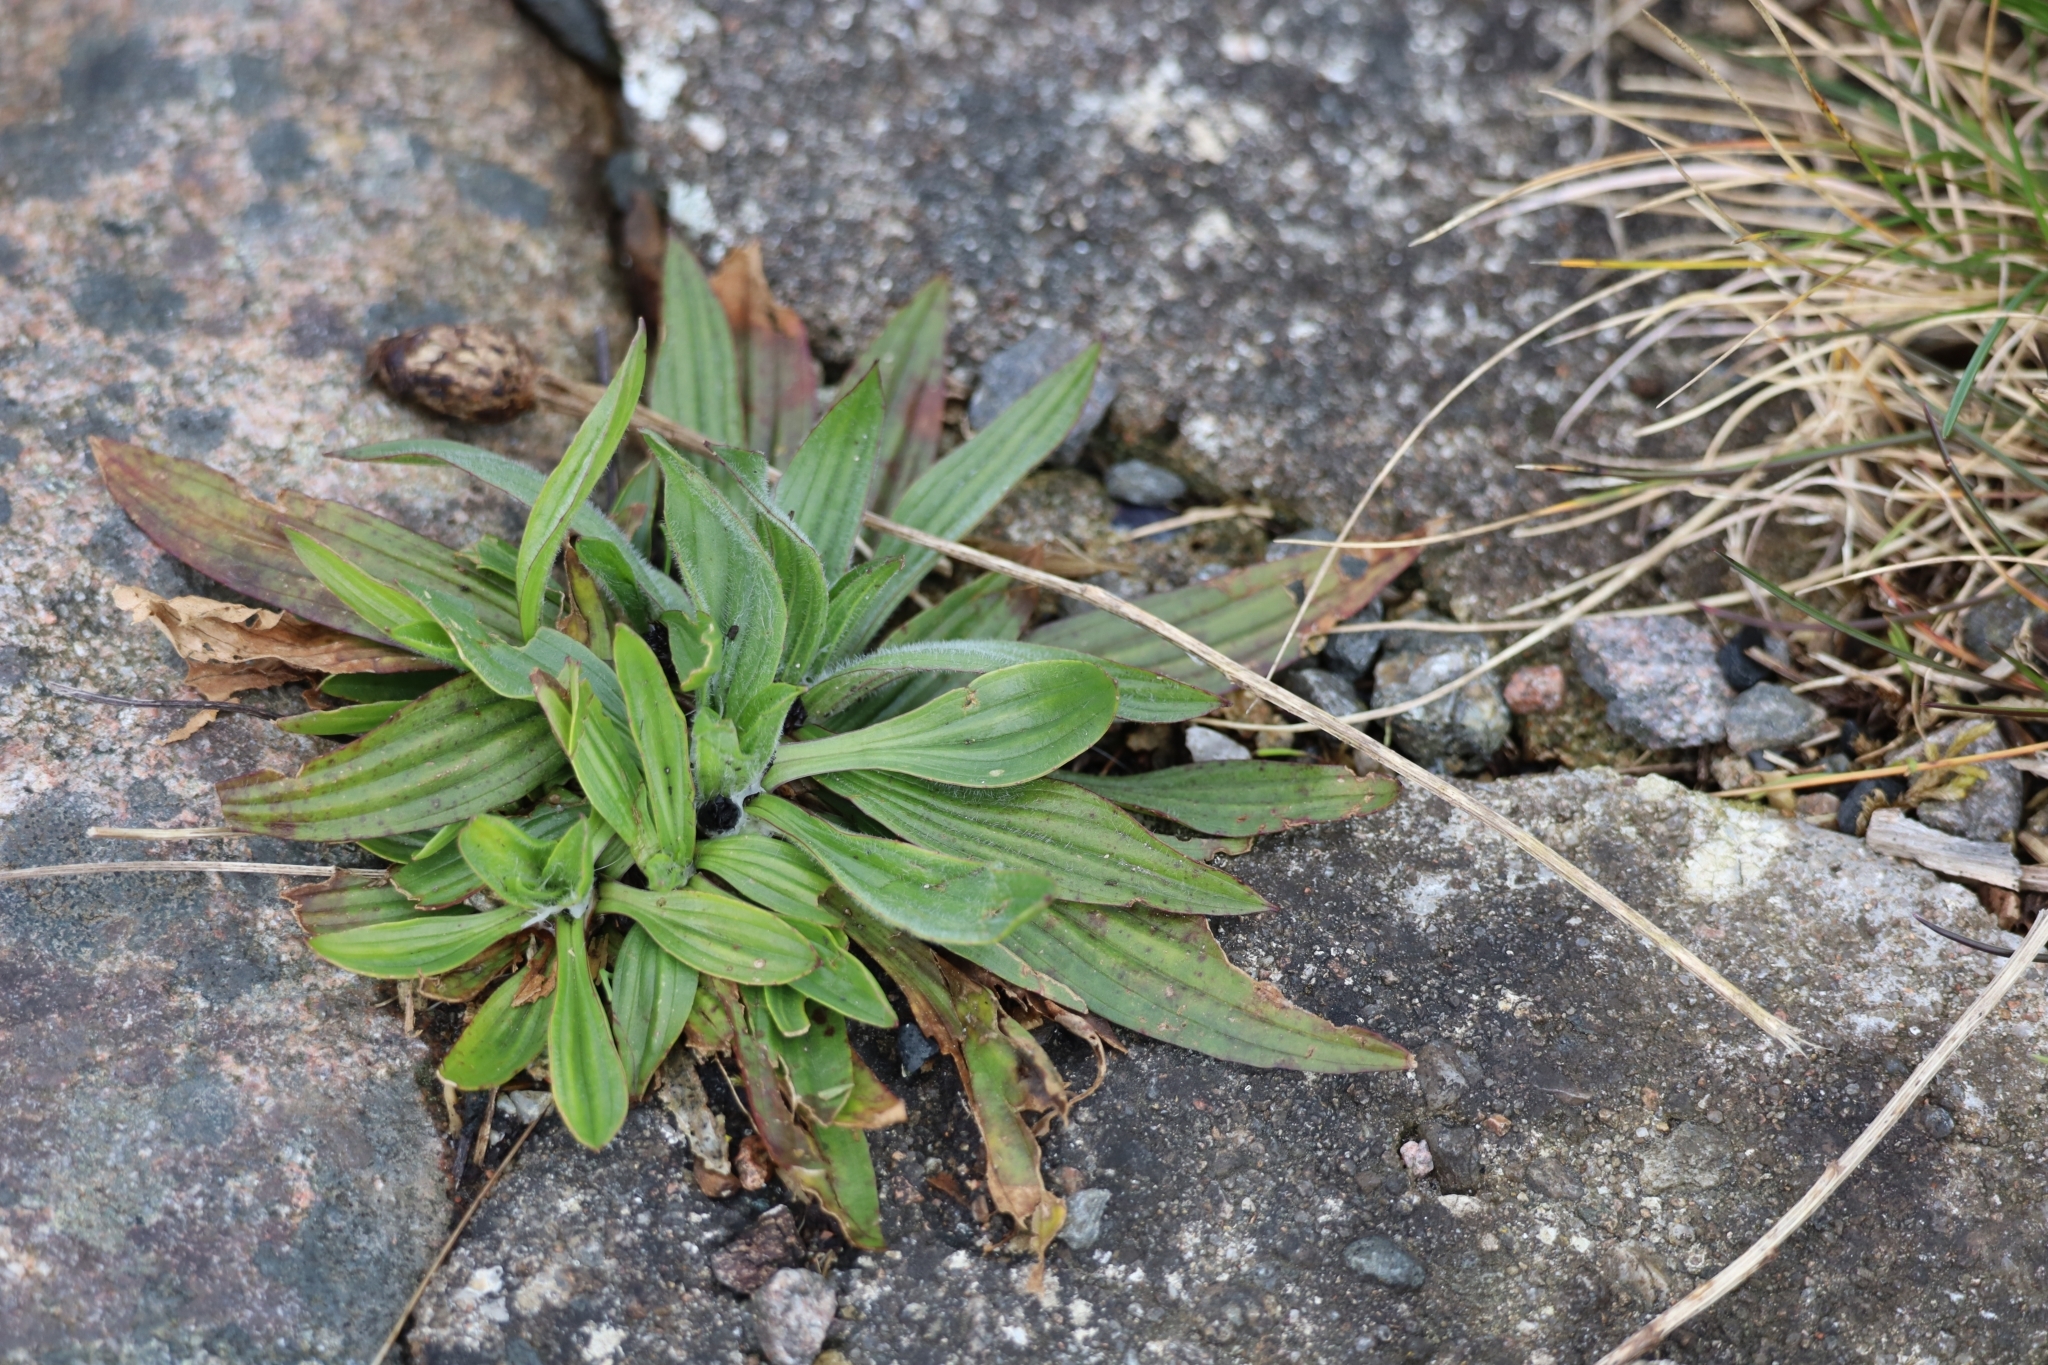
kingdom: Plantae
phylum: Tracheophyta
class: Magnoliopsida
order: Lamiales
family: Plantaginaceae
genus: Plantago
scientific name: Plantago lanceolata
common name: Ribwort plantain
